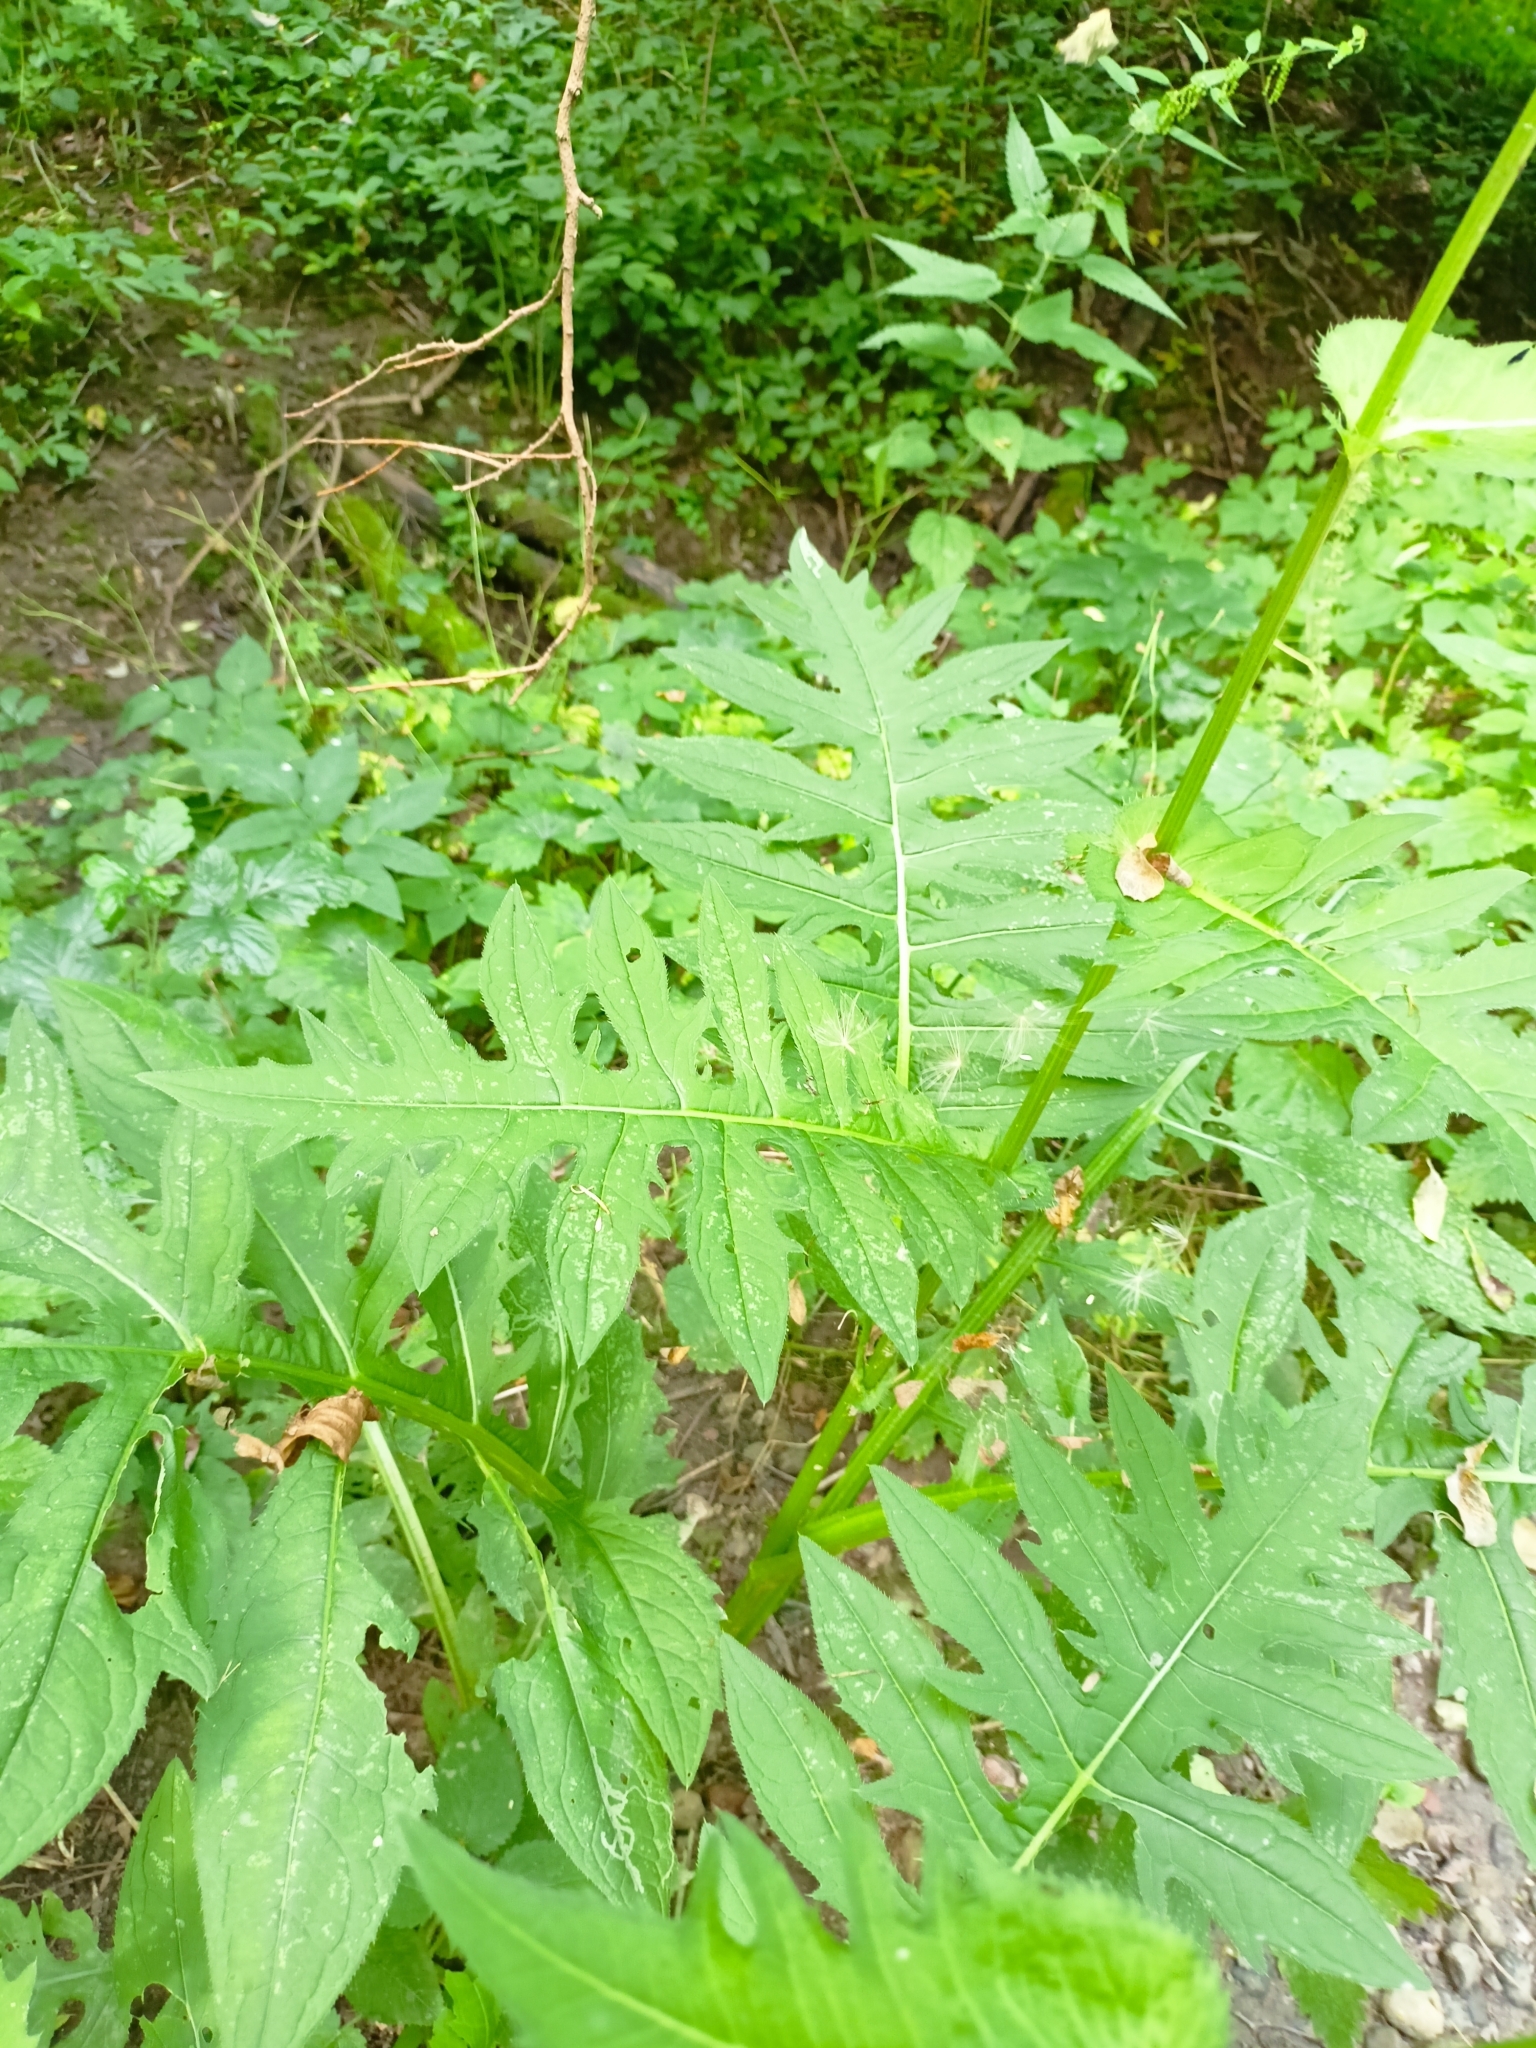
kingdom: Plantae
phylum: Tracheophyta
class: Magnoliopsida
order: Asterales
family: Asteraceae
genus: Cirsium
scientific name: Cirsium oleraceum
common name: Cabbage thistle
